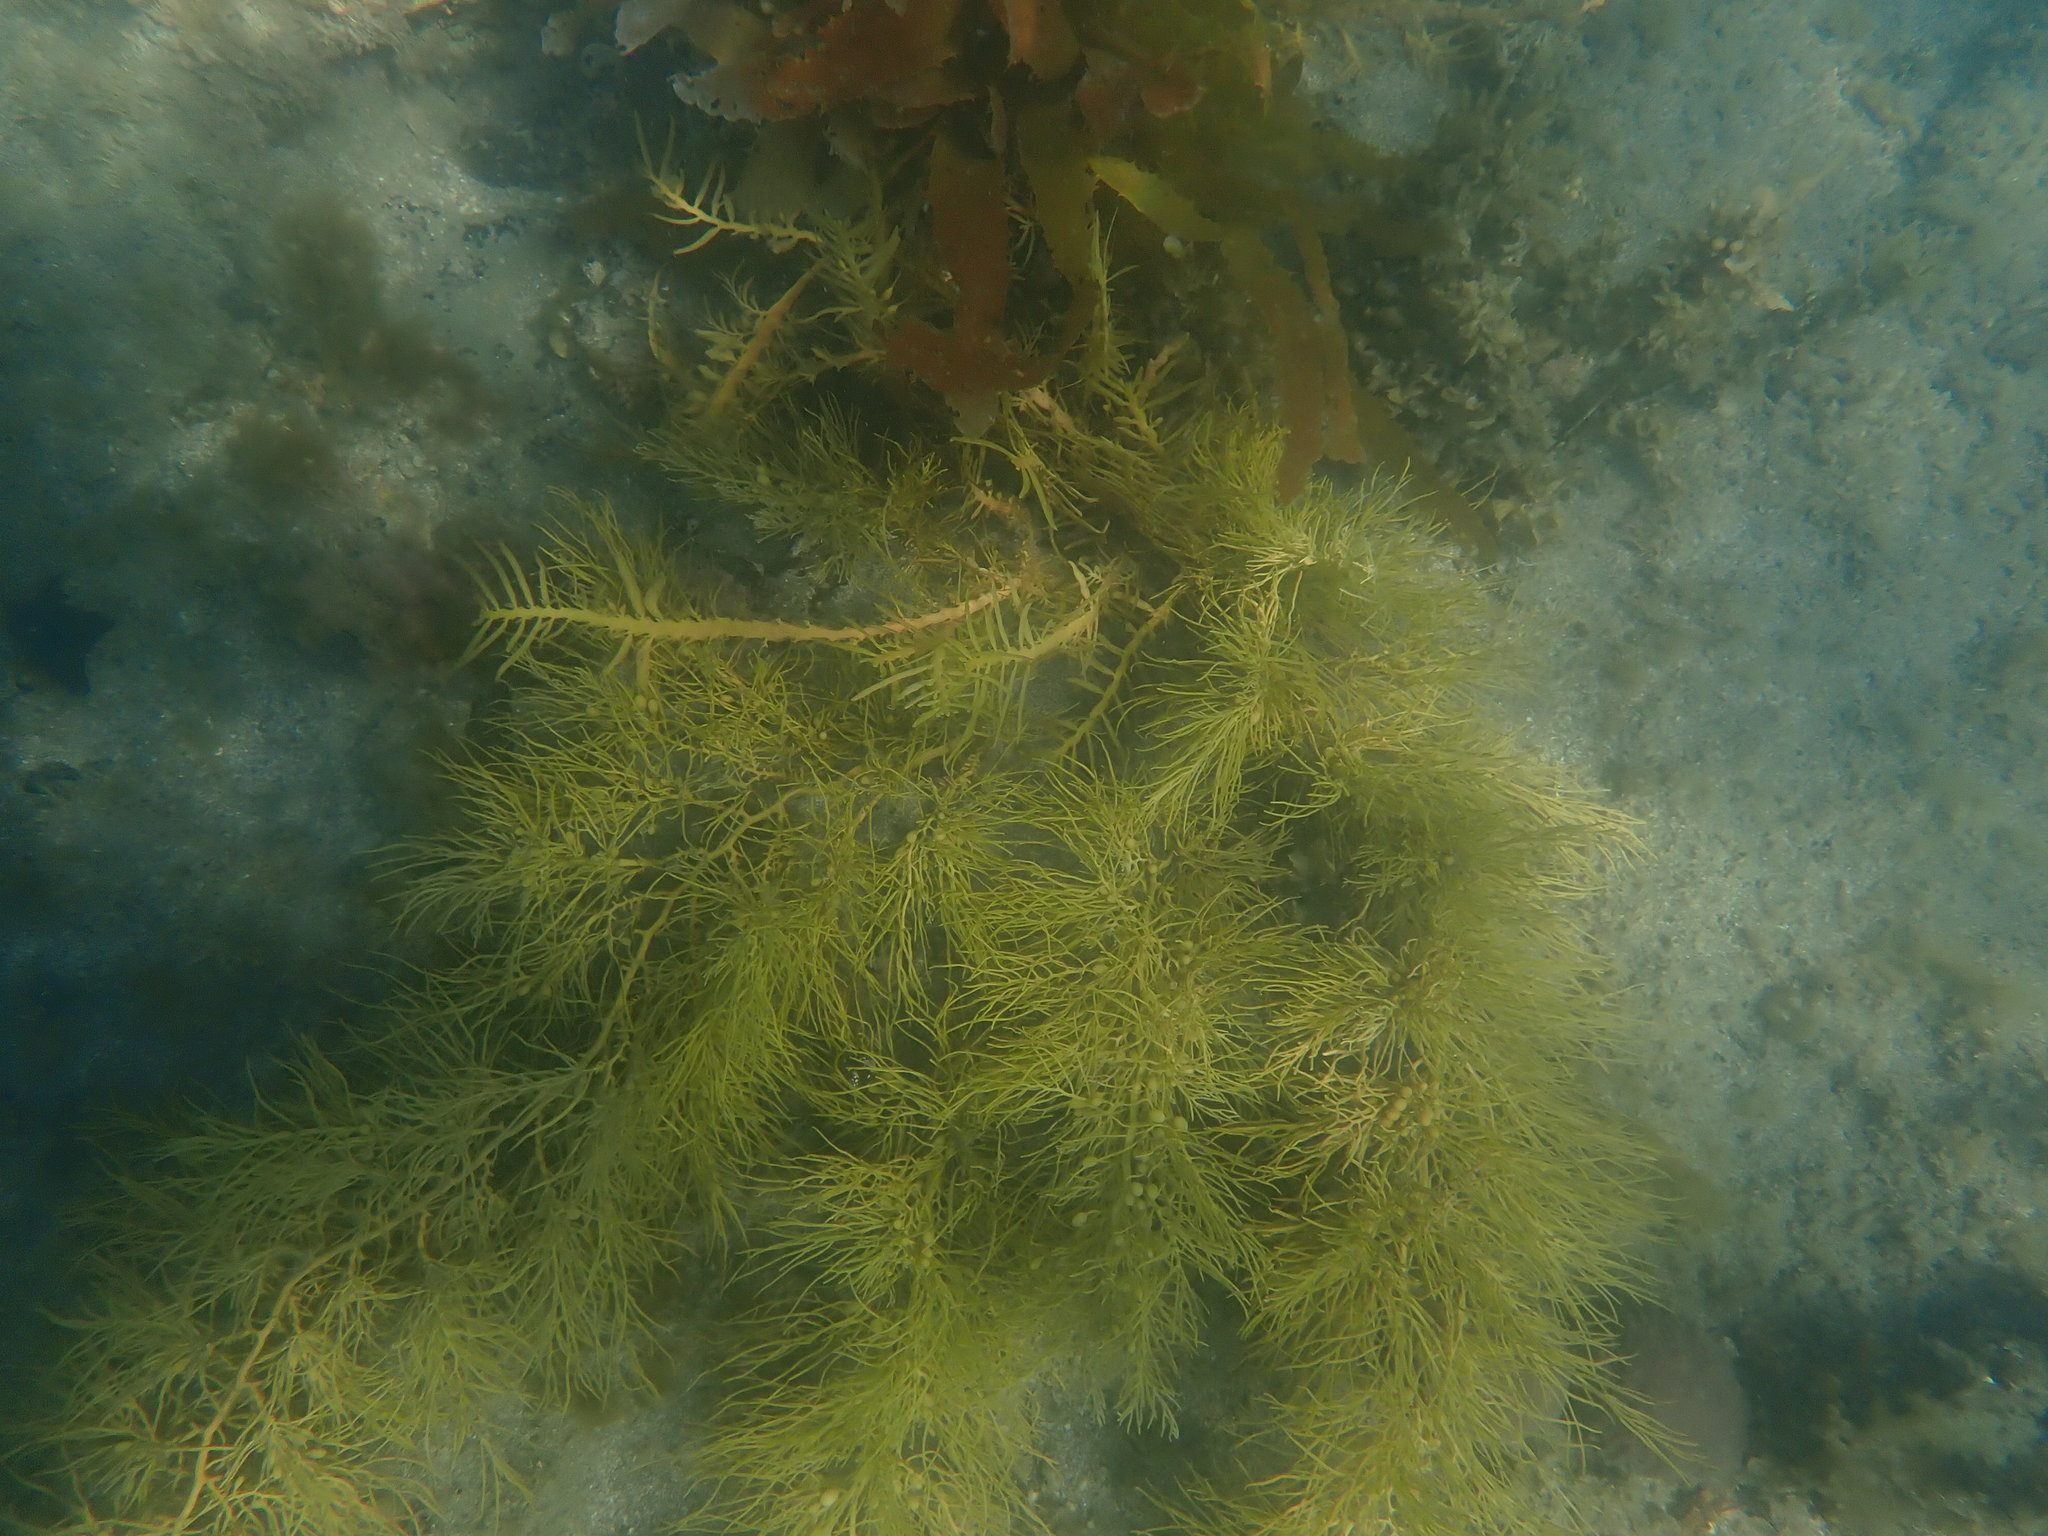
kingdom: Chromista
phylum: Ochrophyta
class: Phaeophyceae
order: Fucales
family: Sargassaceae
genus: Cystophora
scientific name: Cystophora retroflexa
